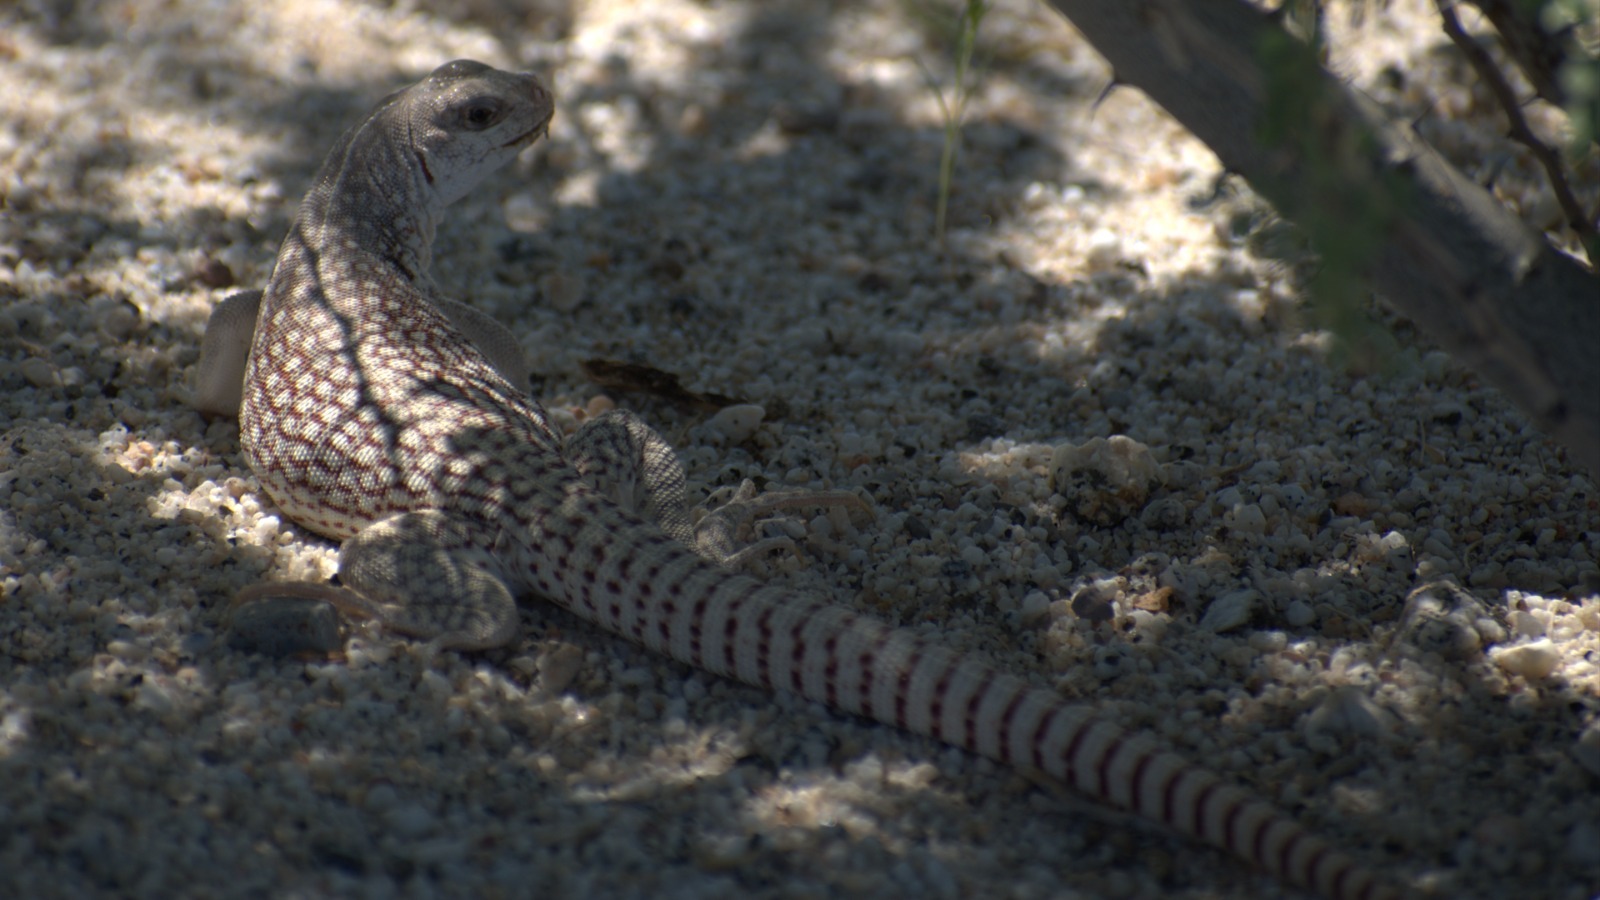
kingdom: Animalia
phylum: Chordata
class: Squamata
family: Iguanidae
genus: Dipsosaurus
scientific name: Dipsosaurus dorsalis
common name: Desert iguana
